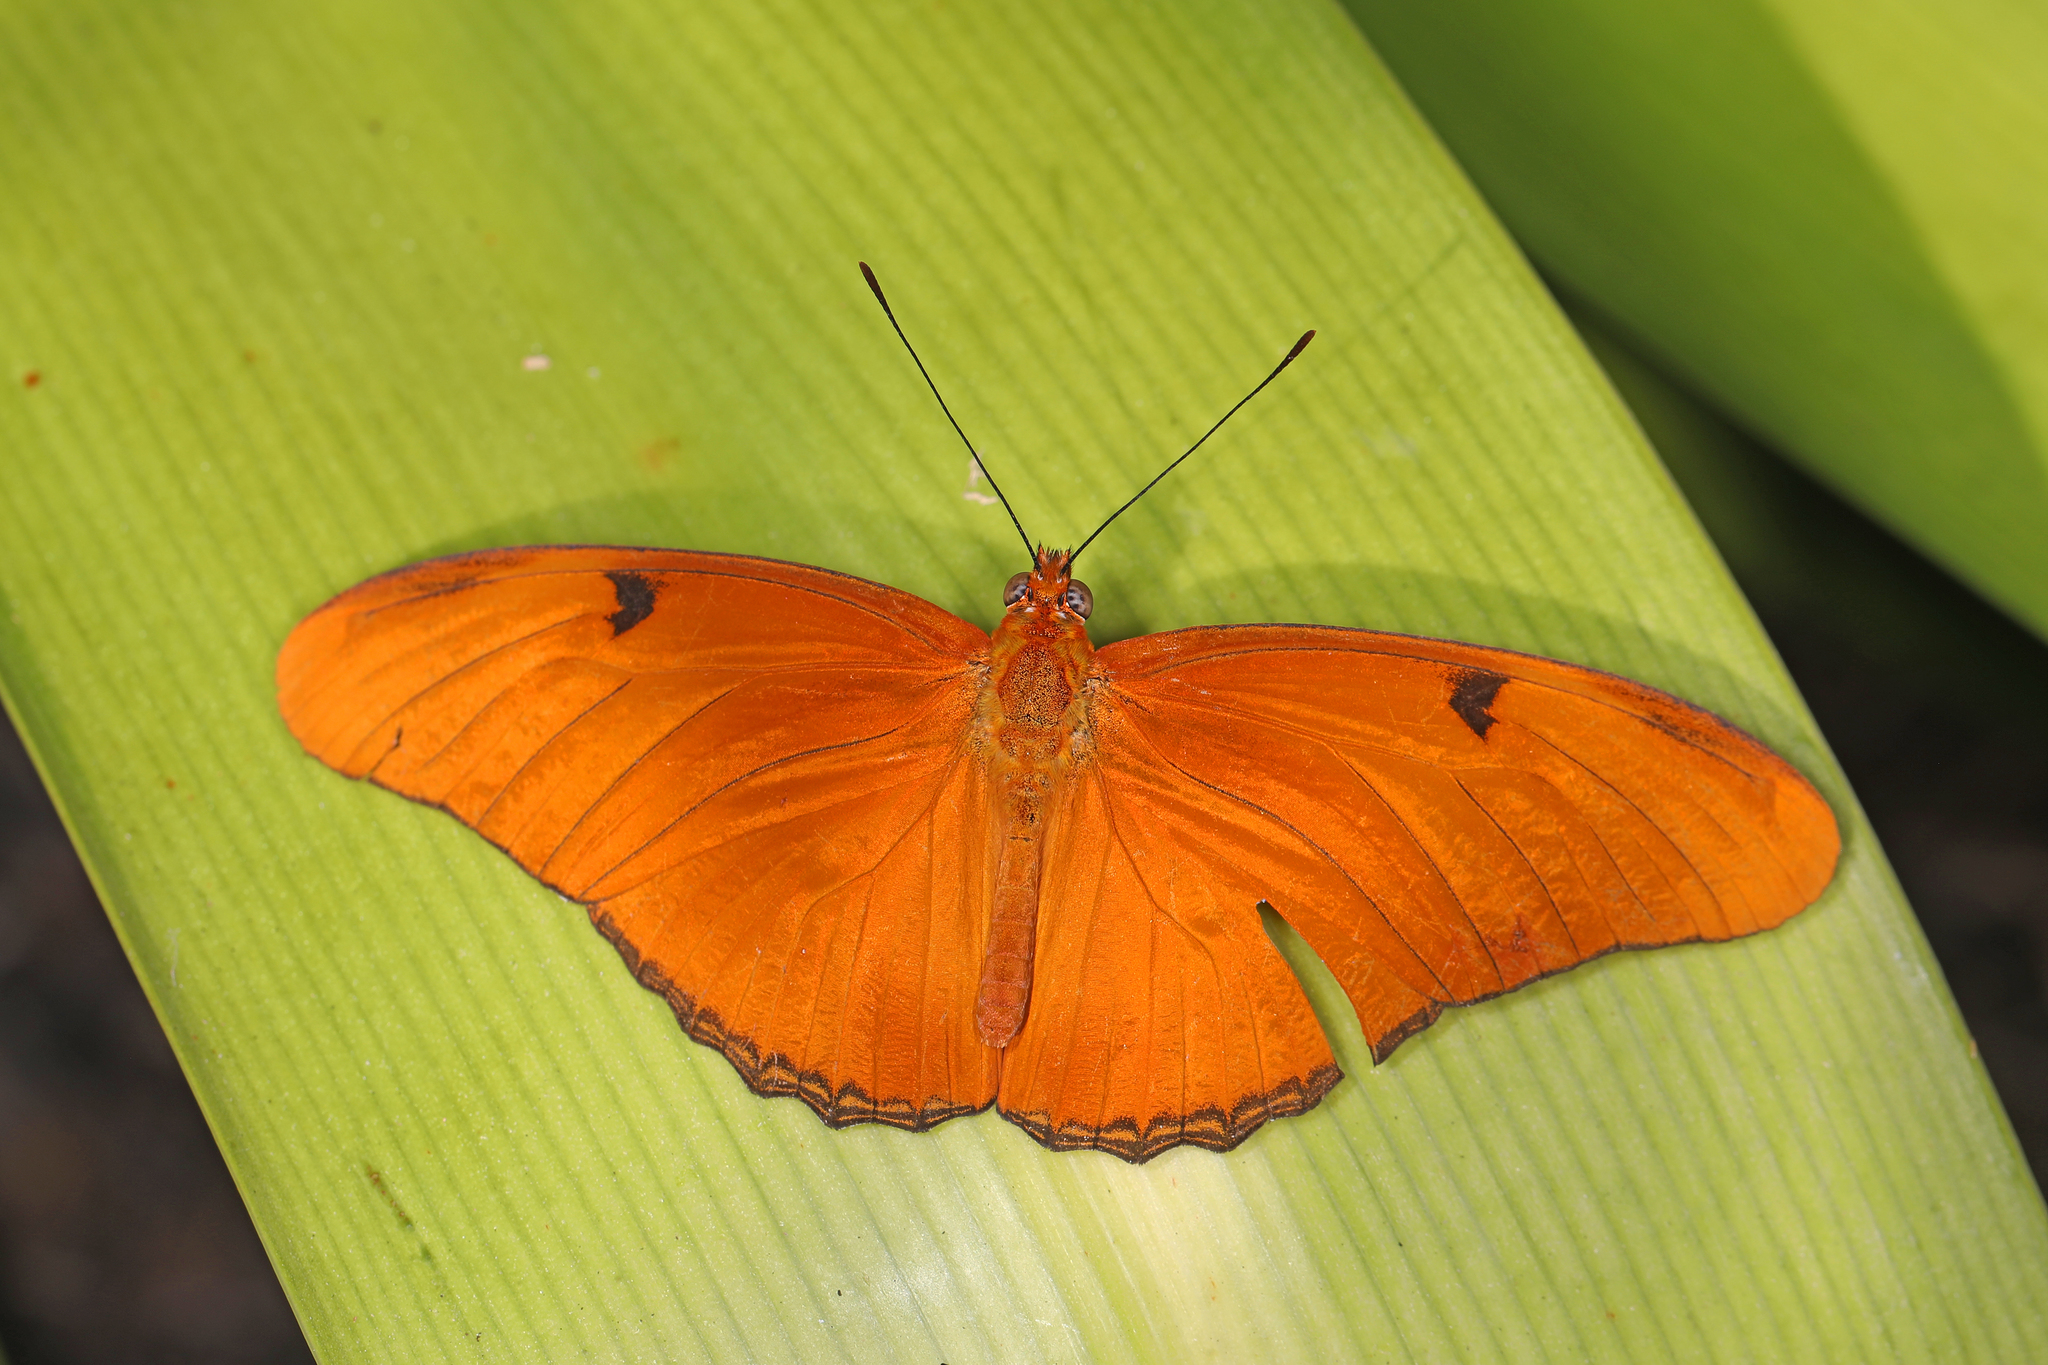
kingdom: Animalia
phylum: Arthropoda
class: Insecta
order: Lepidoptera
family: Nymphalidae
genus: Dryas
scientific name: Dryas iulia
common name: Flambeau
